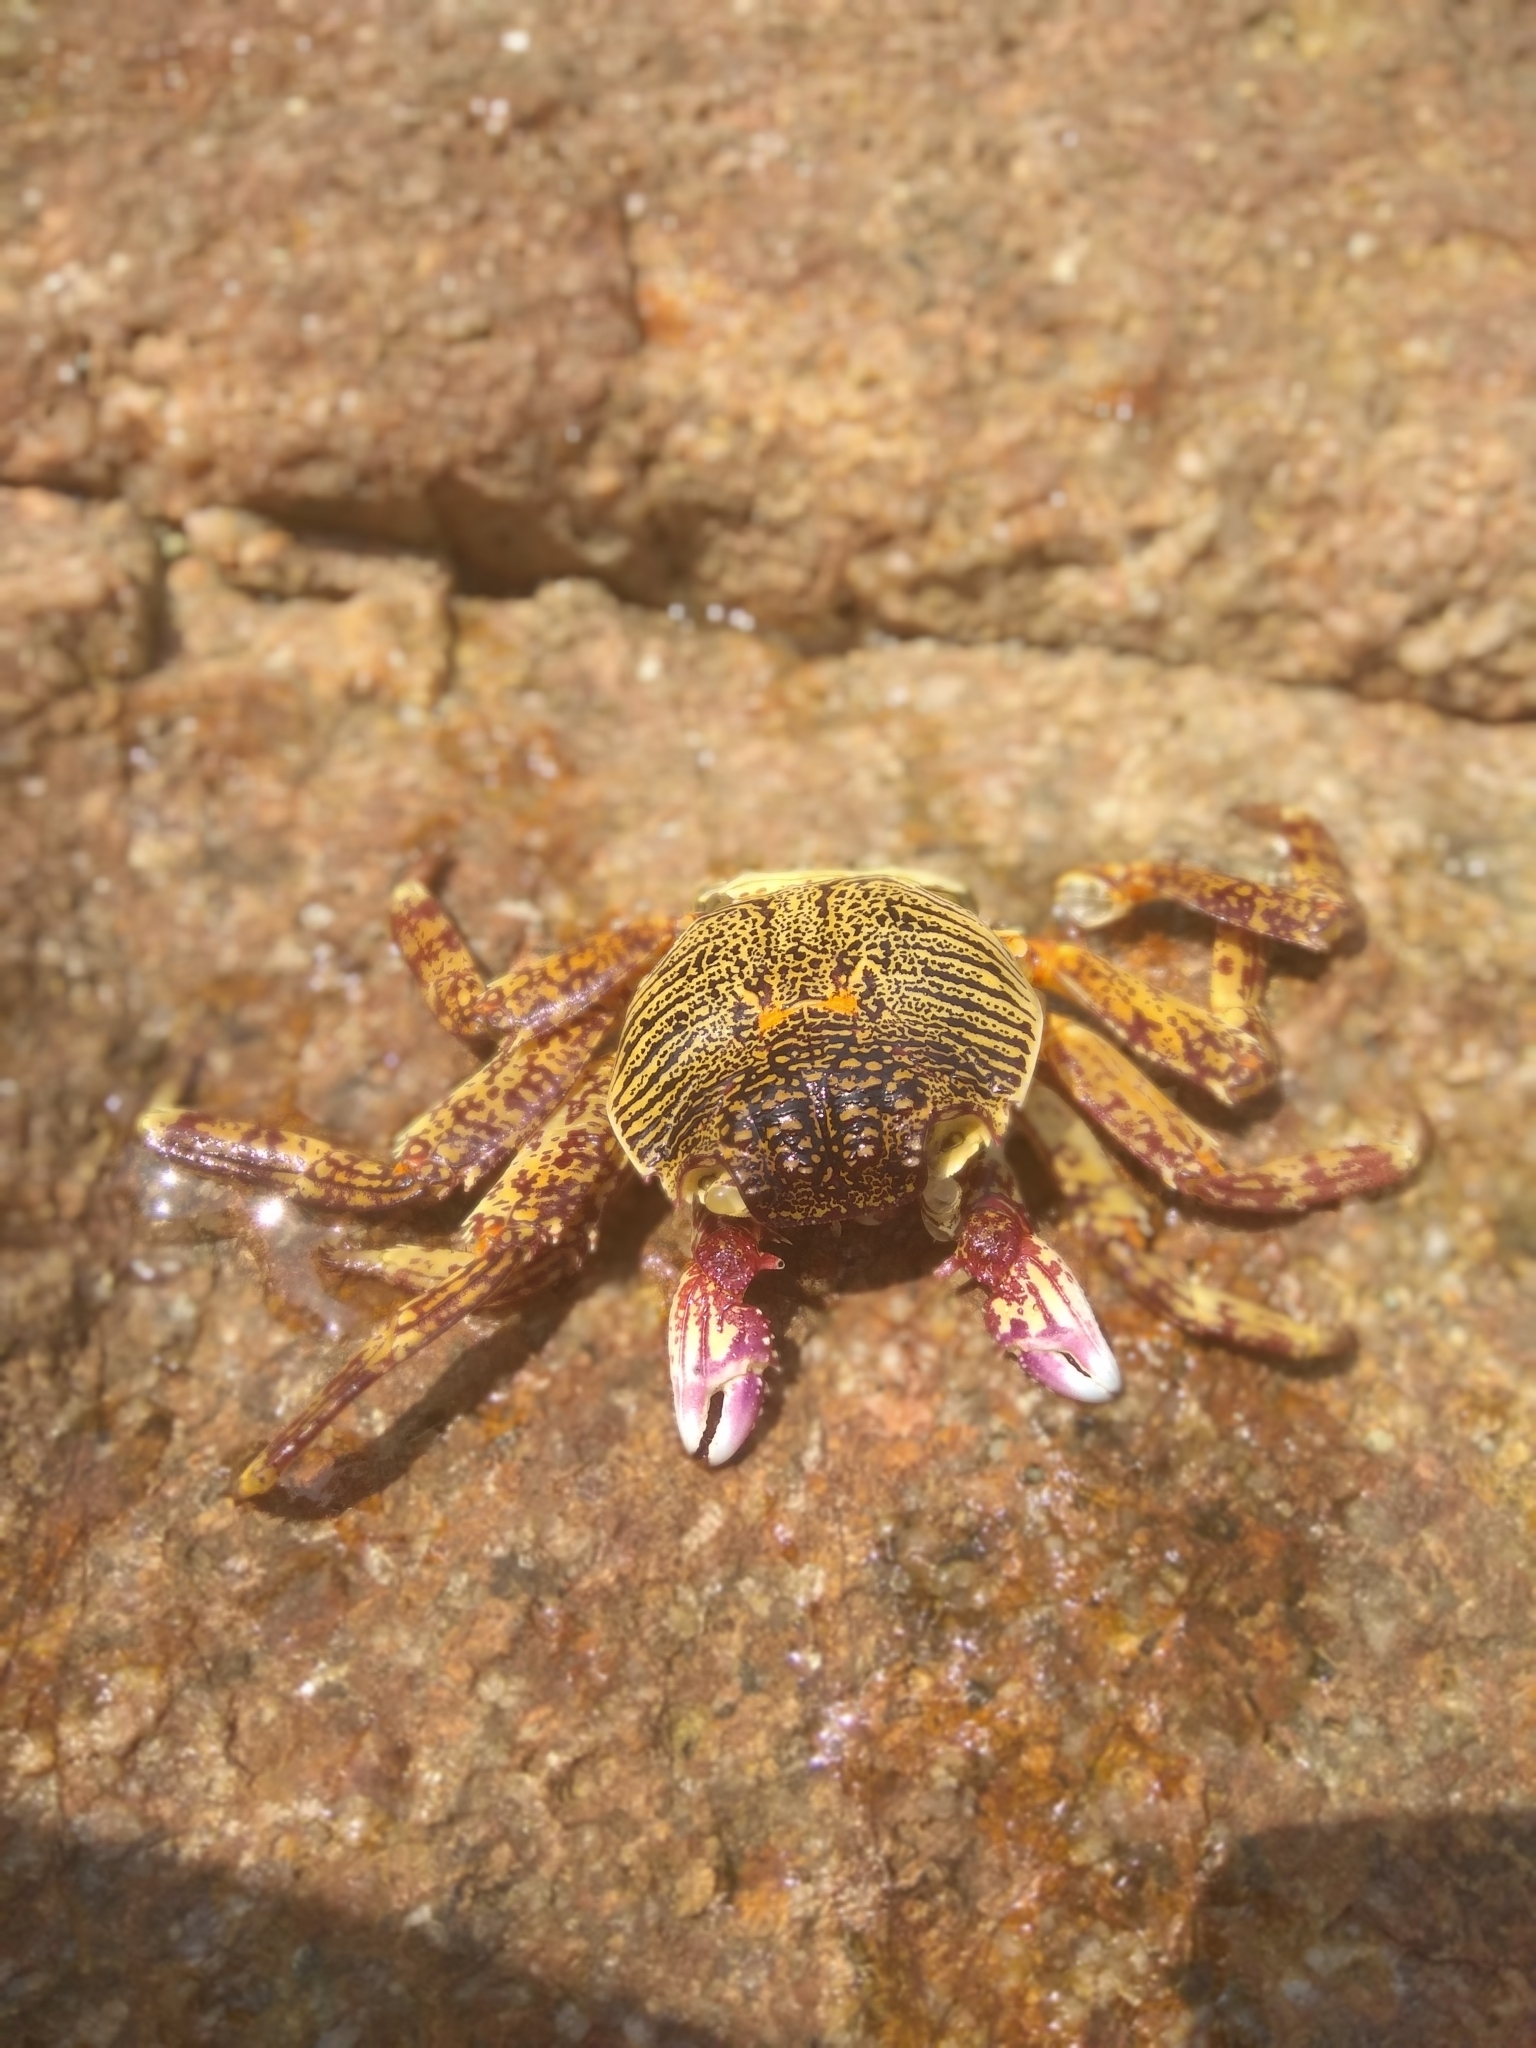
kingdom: Animalia
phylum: Arthropoda
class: Malacostraca
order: Decapoda
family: Grapsidae
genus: Grapsus
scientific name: Grapsus albolineatus
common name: Mottled lightfoot crab
